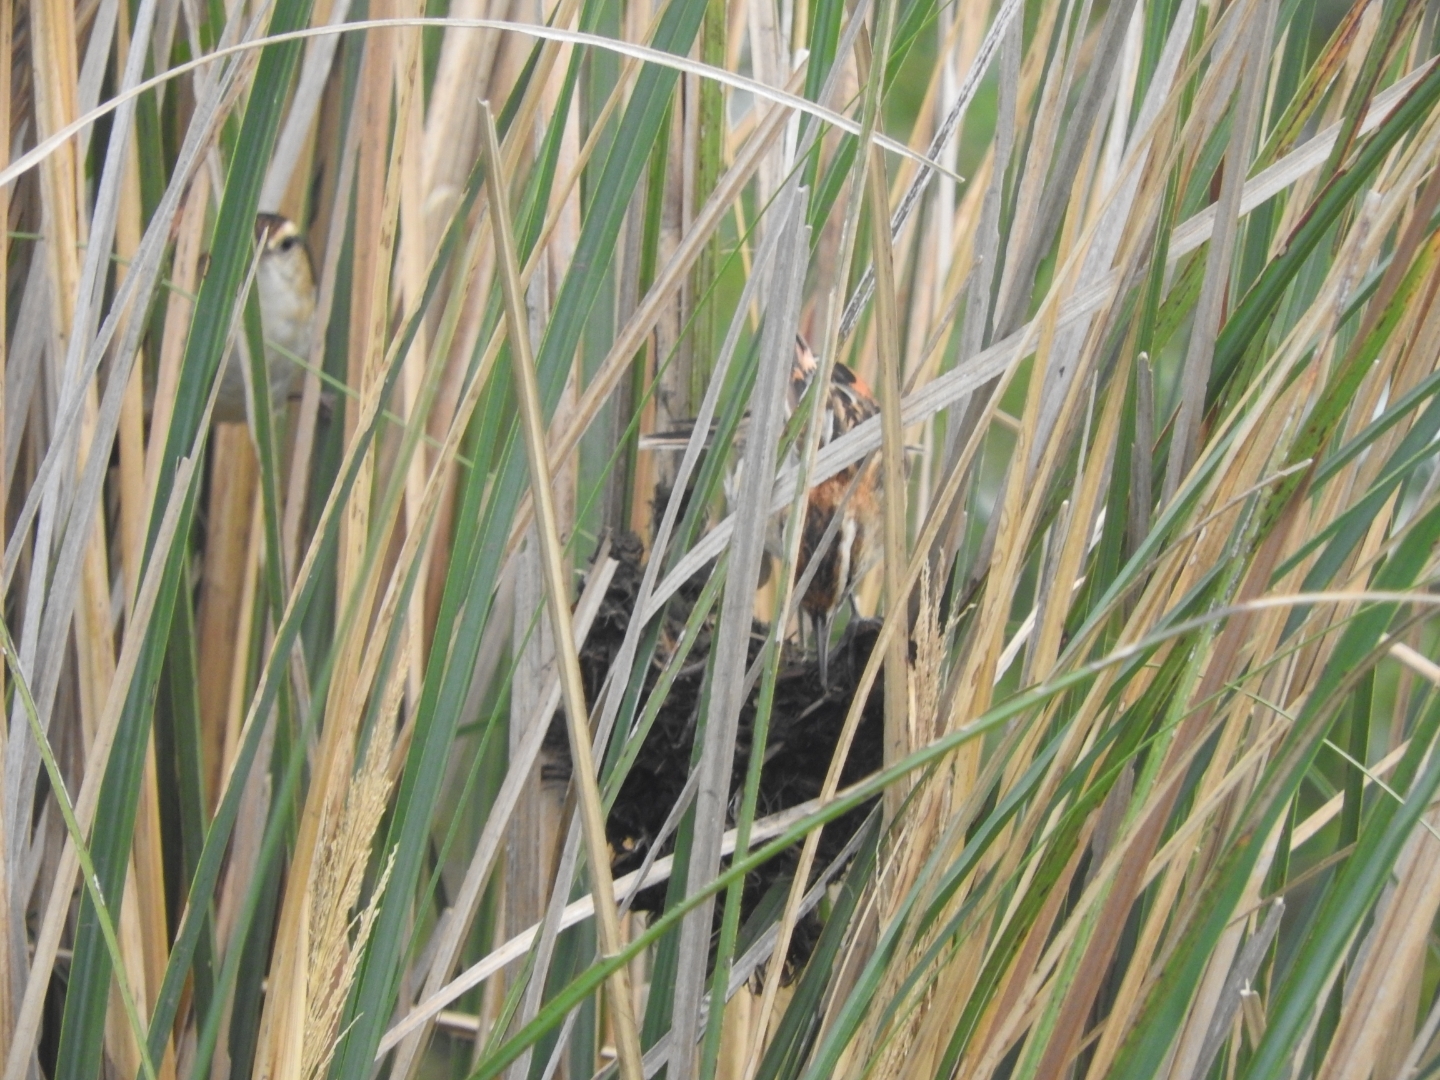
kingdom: Animalia
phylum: Chordata
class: Aves
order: Passeriformes
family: Furnariidae
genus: Phleocryptes
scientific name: Phleocryptes melanops
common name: Wren-like rushbird
